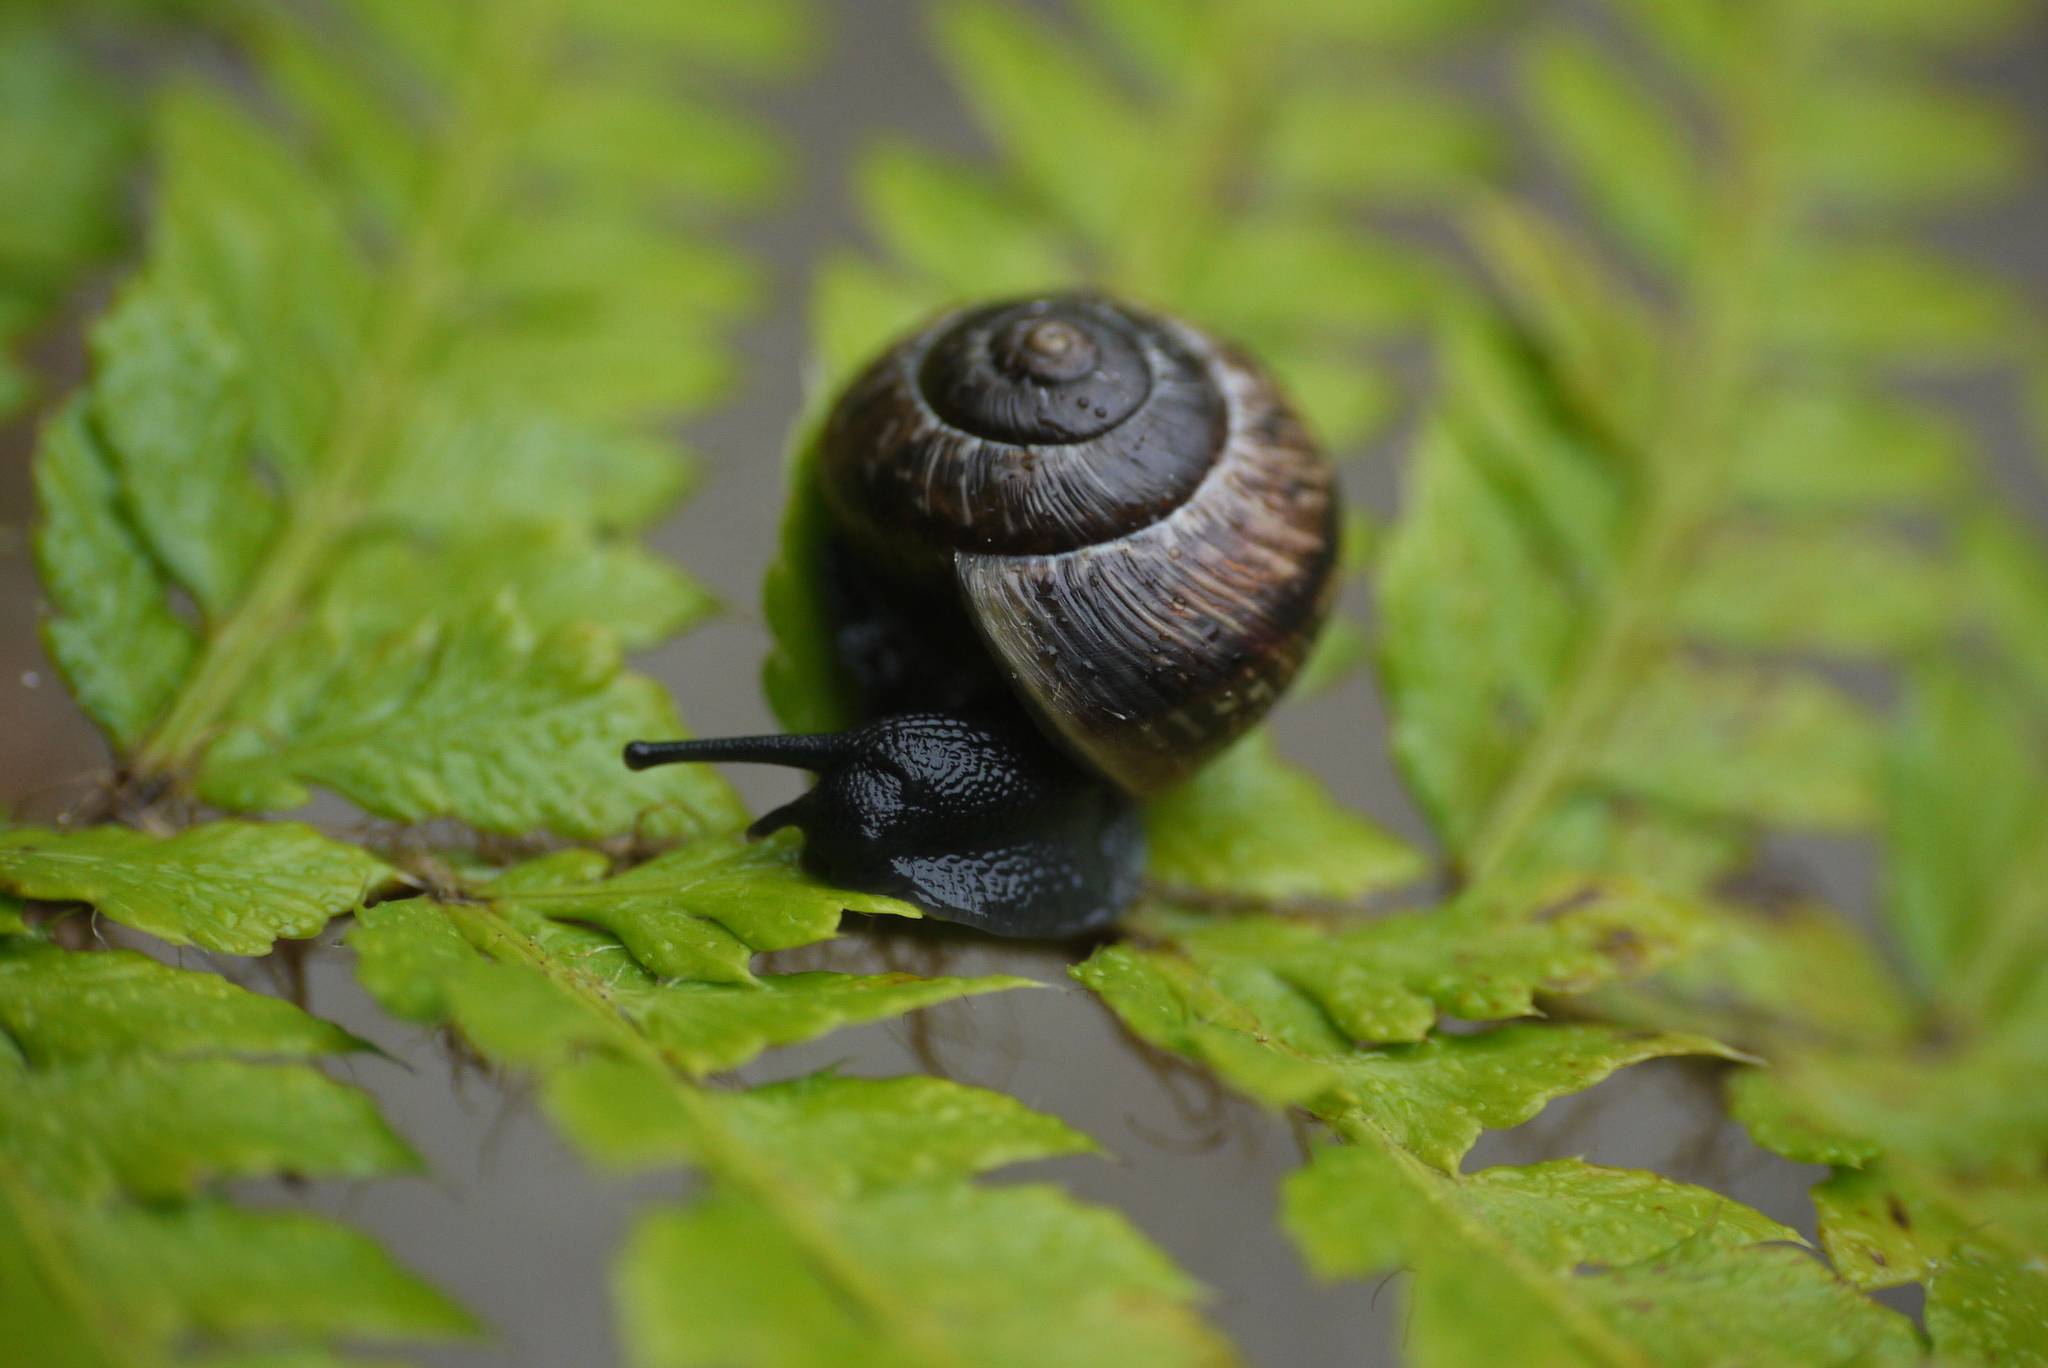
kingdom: Animalia
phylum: Mollusca
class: Gastropoda
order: Stylommatophora
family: Helicidae
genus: Arianta
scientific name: Arianta arbustorum
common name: Copse snail
